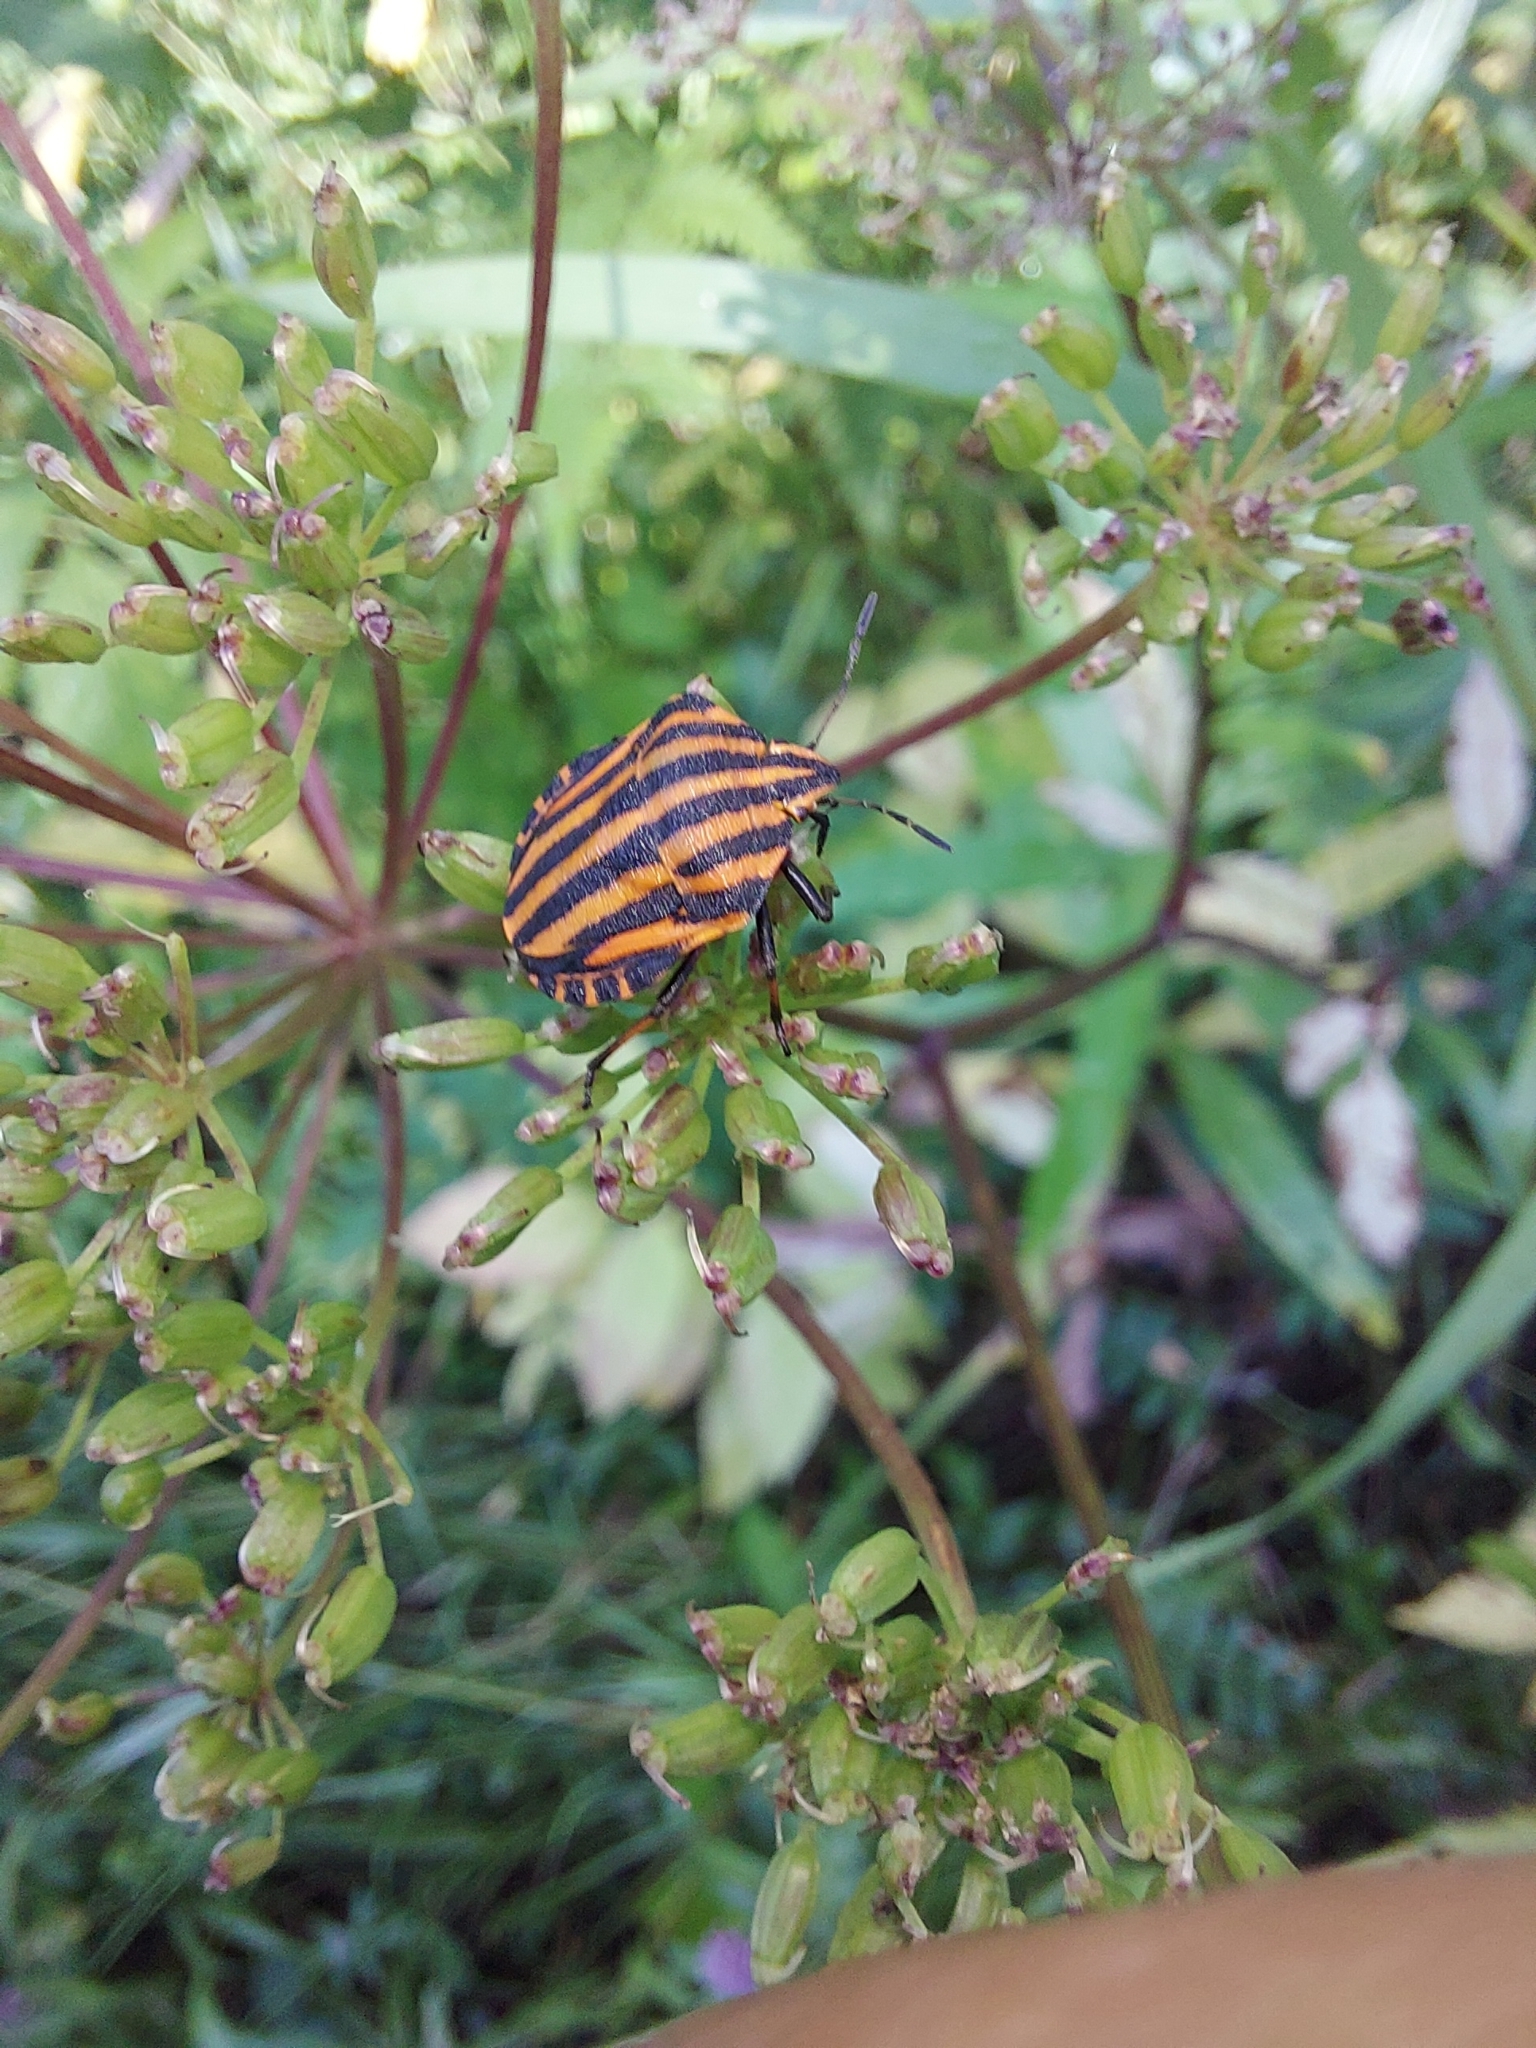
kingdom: Animalia
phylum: Arthropoda
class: Insecta
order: Hemiptera
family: Pentatomidae
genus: Graphosoma
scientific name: Graphosoma italicum
